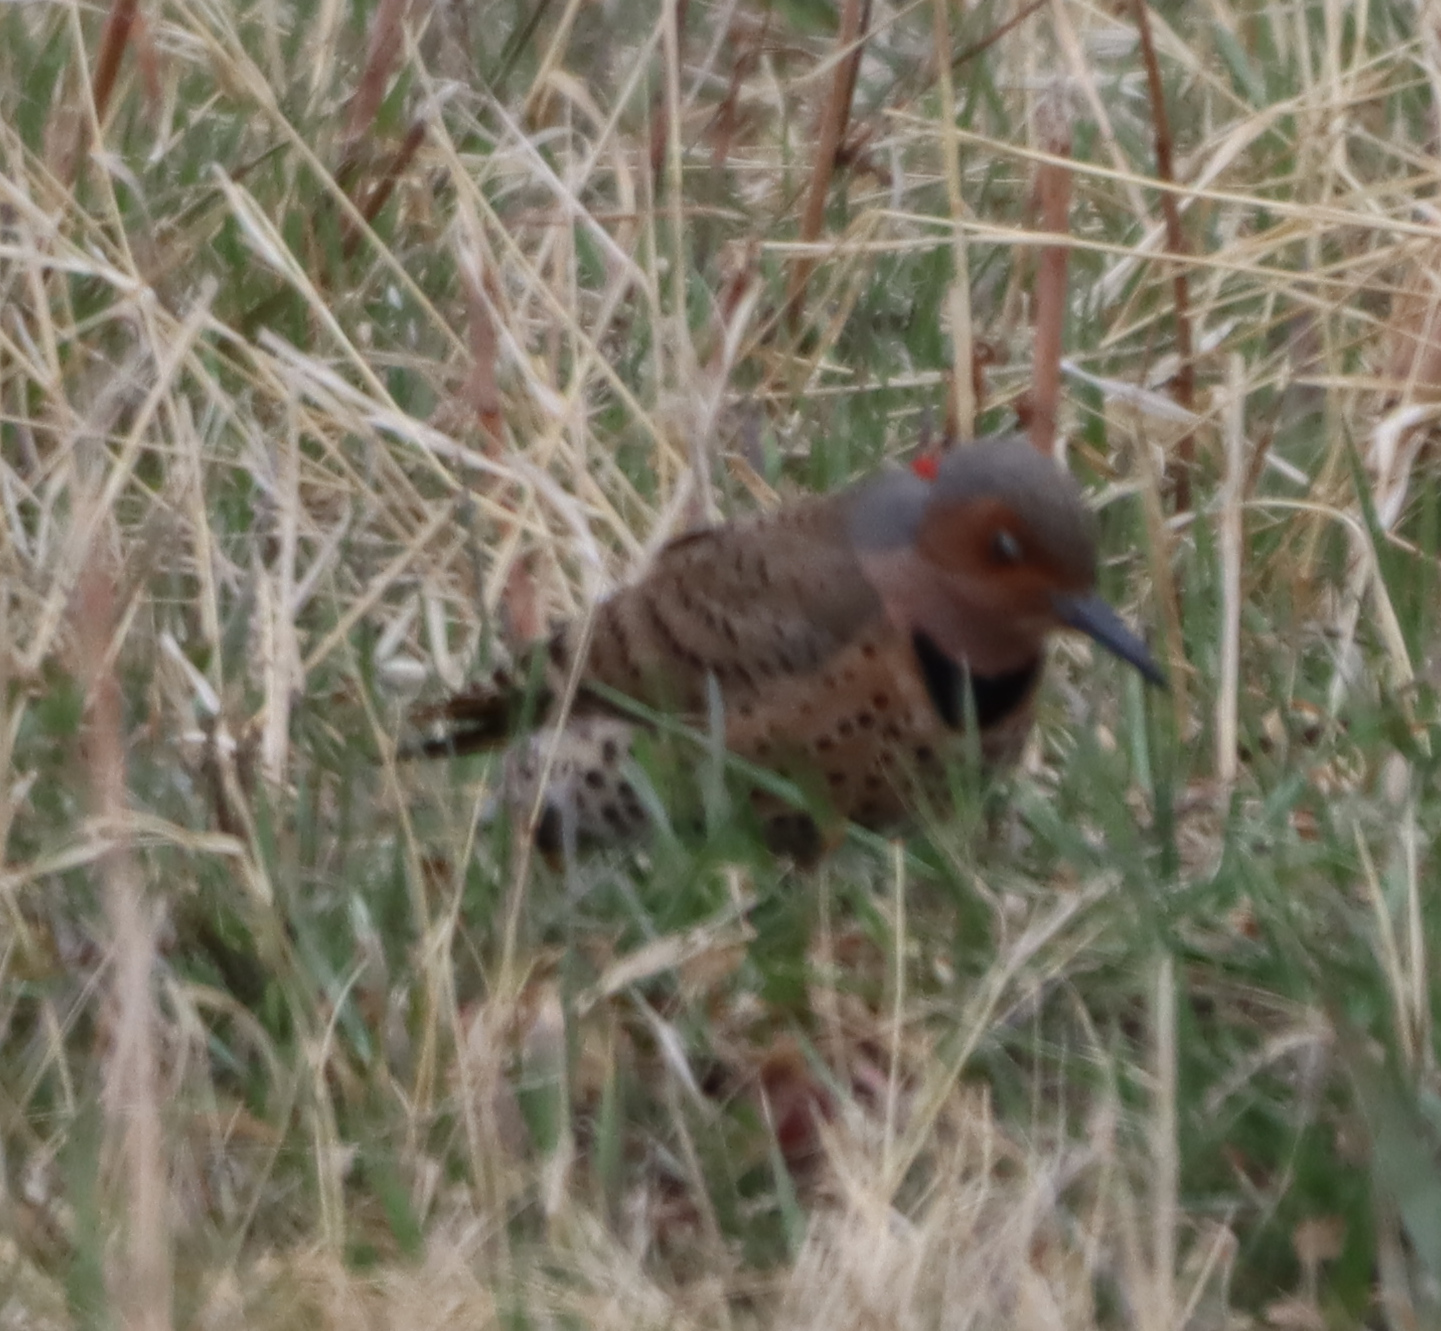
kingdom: Animalia
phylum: Chordata
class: Aves
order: Piciformes
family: Picidae
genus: Colaptes
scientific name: Colaptes auratus
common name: Northern flicker
